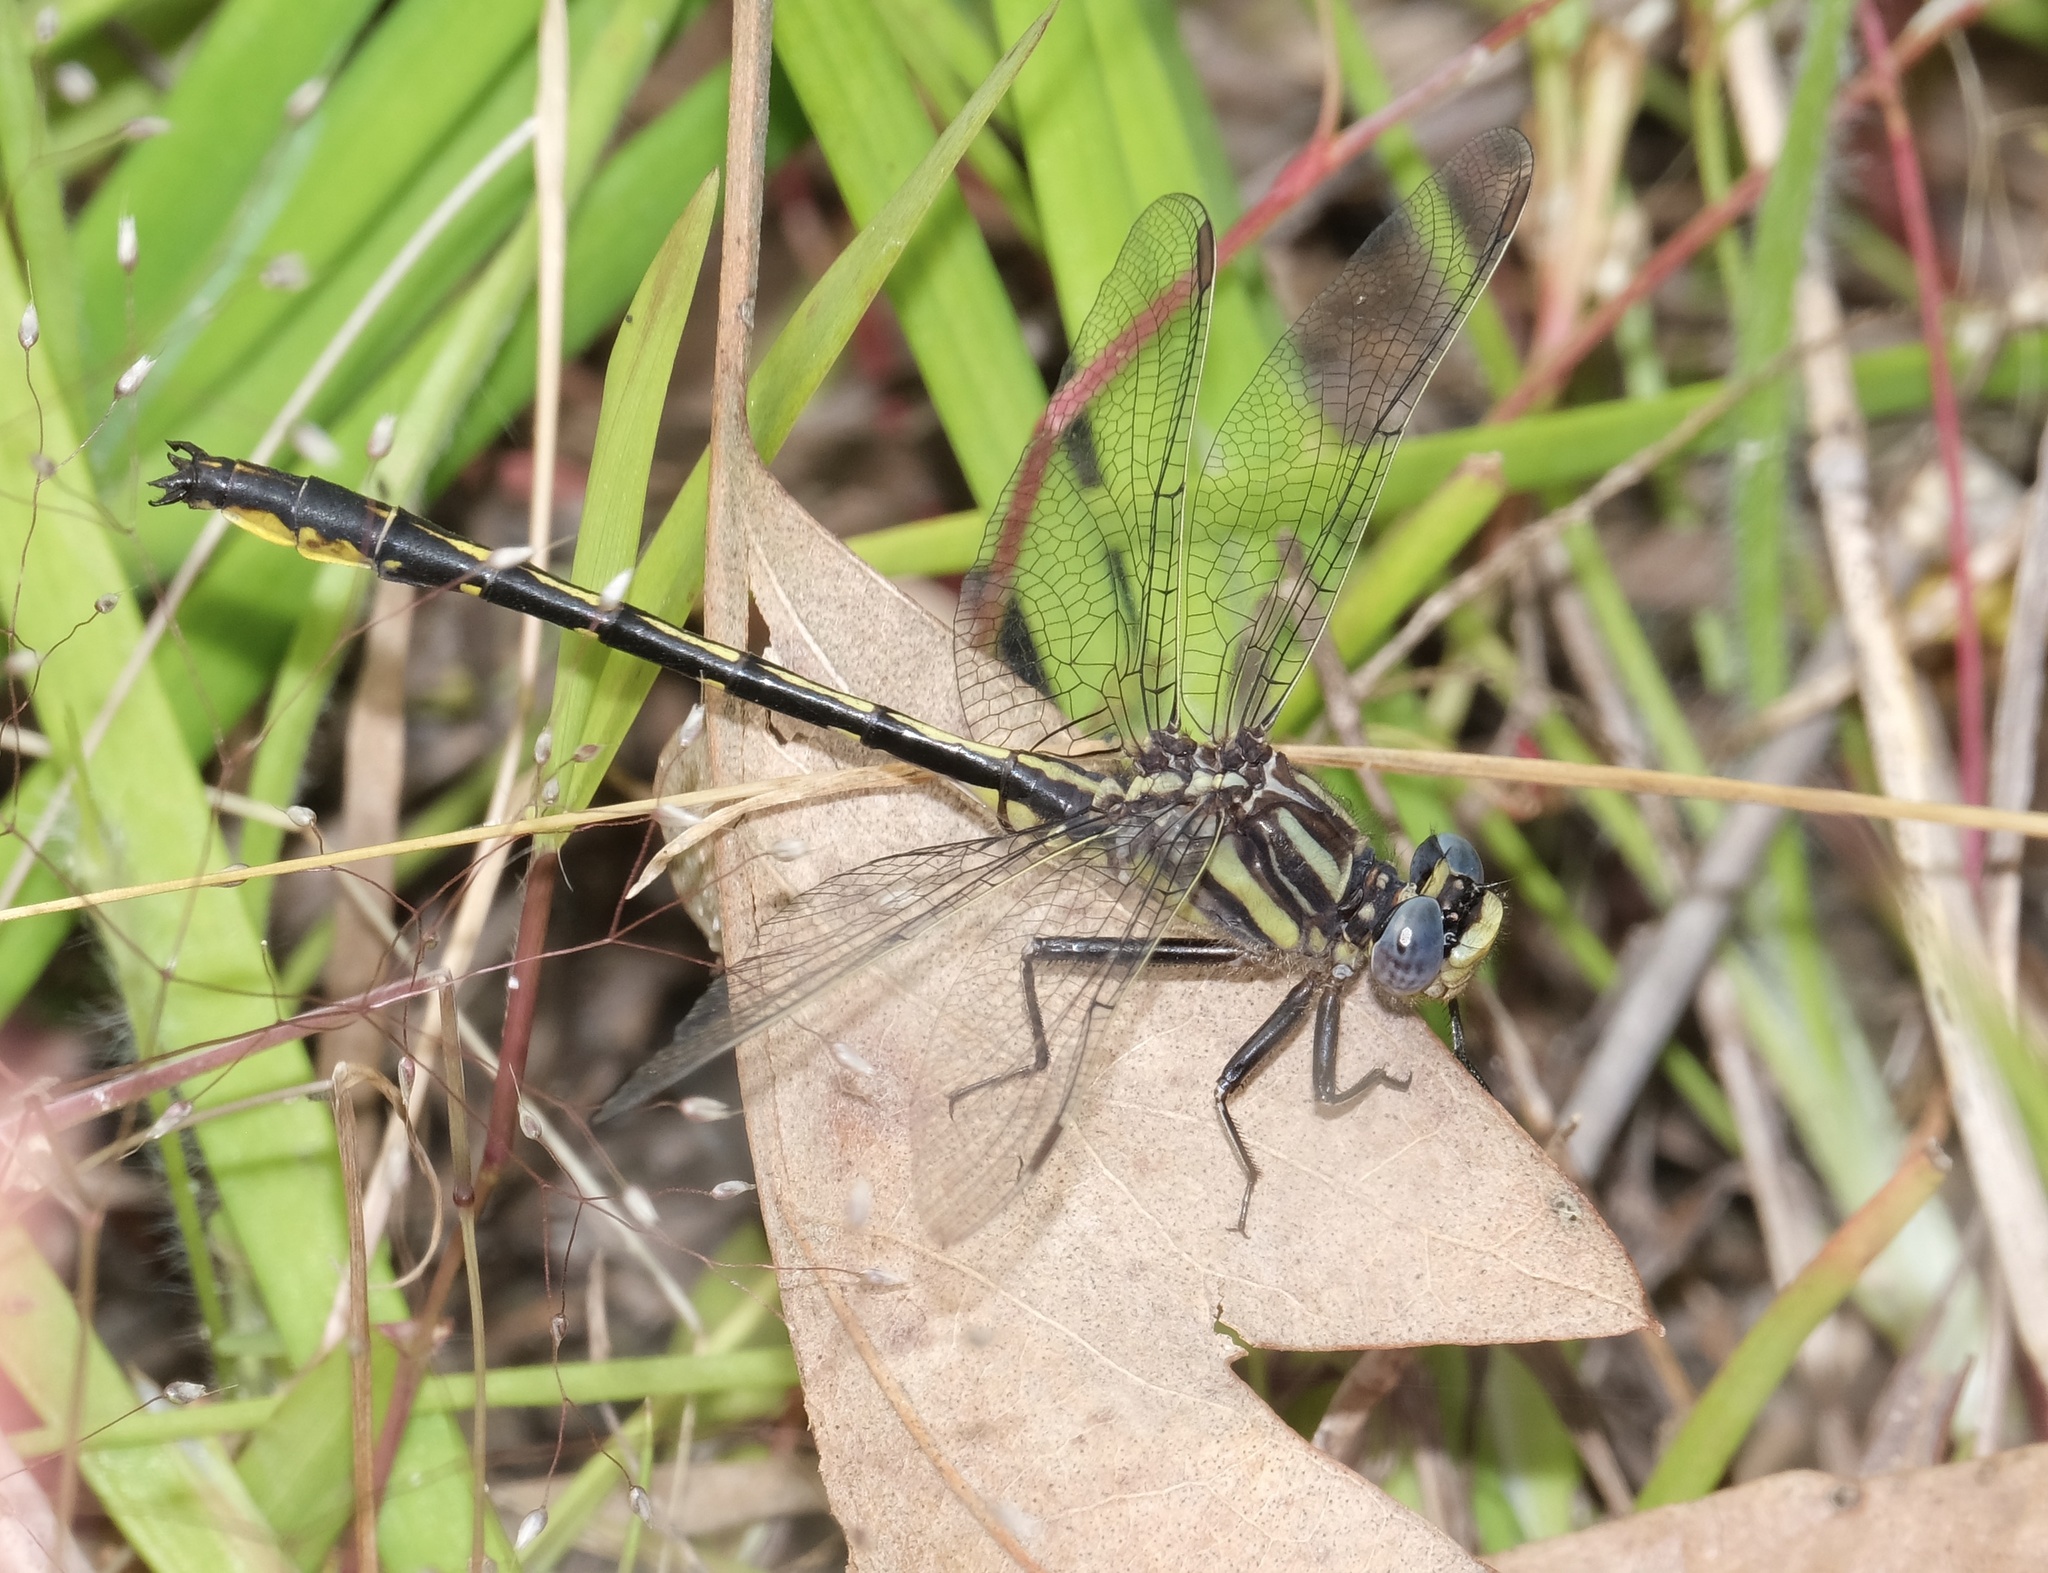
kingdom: Animalia
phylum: Arthropoda
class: Insecta
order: Odonata
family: Gomphidae
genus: Phanogomphus
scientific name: Phanogomphus oklahomensis
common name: Oklahoma clubtail
